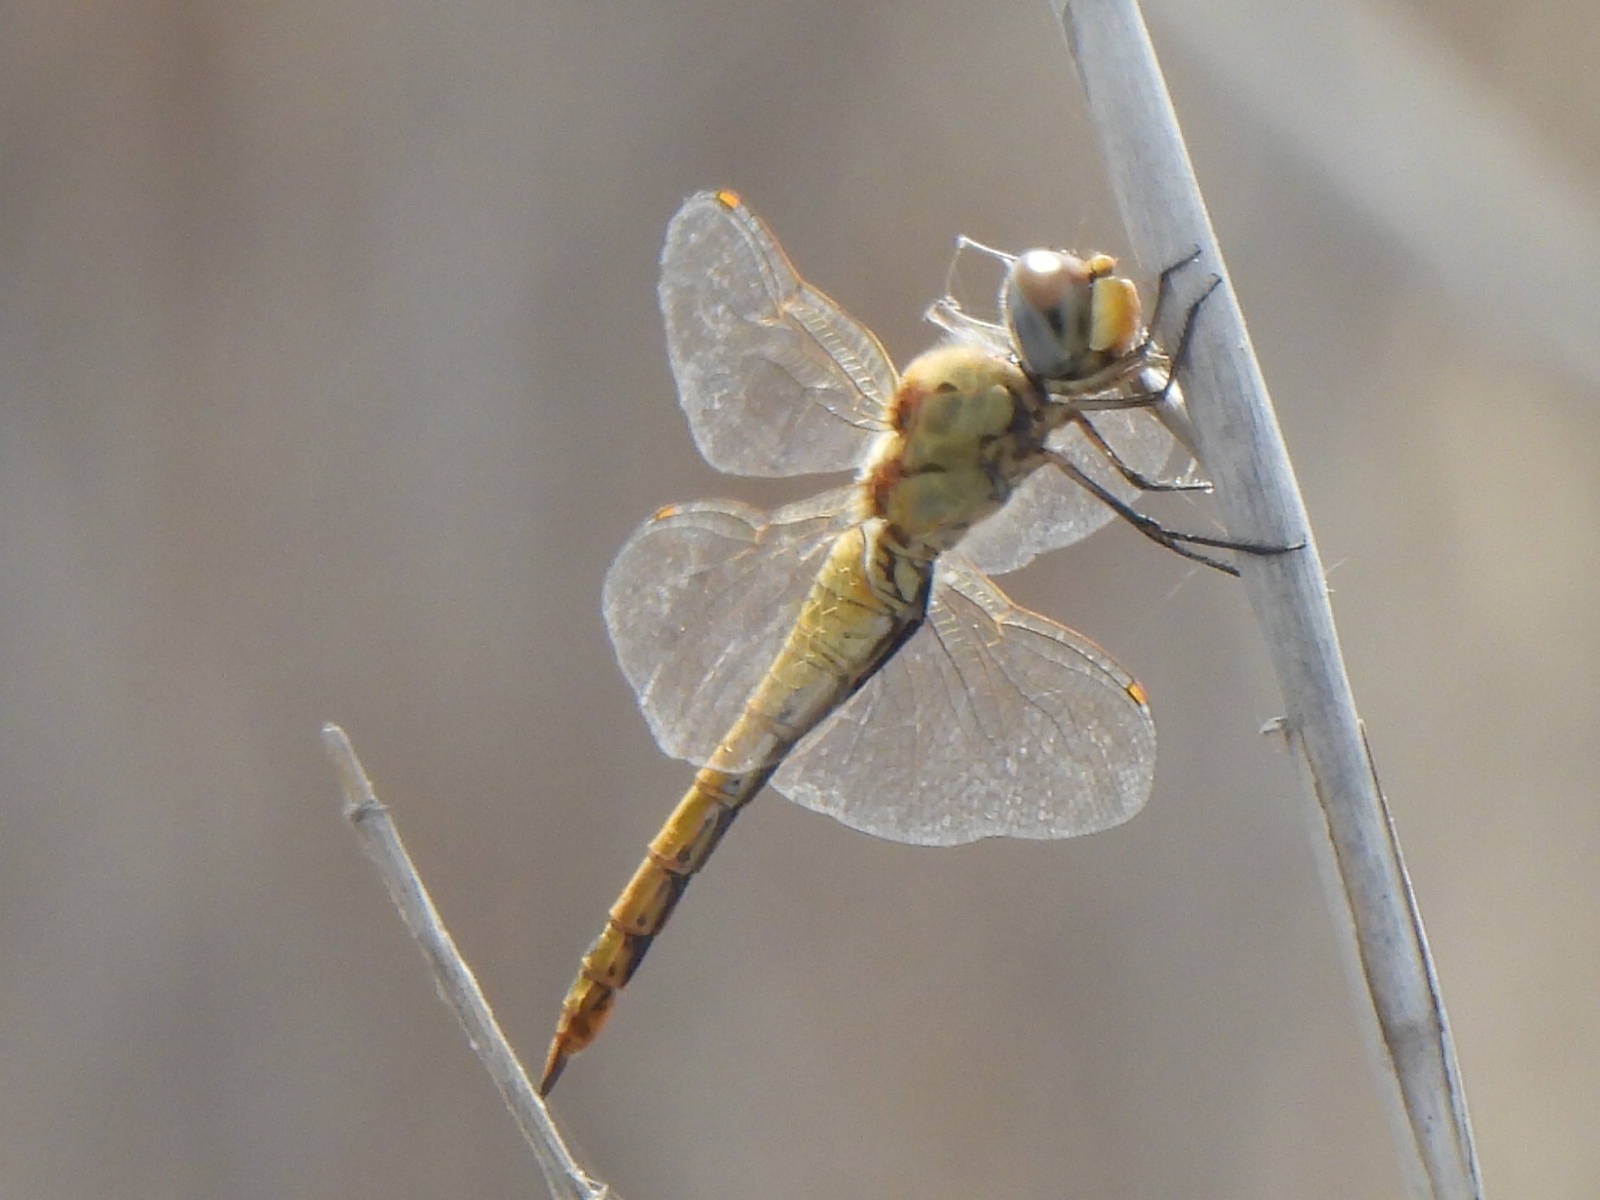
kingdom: Animalia
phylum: Arthropoda
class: Insecta
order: Odonata
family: Libellulidae
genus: Pantala
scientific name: Pantala flavescens
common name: Wandering glider
